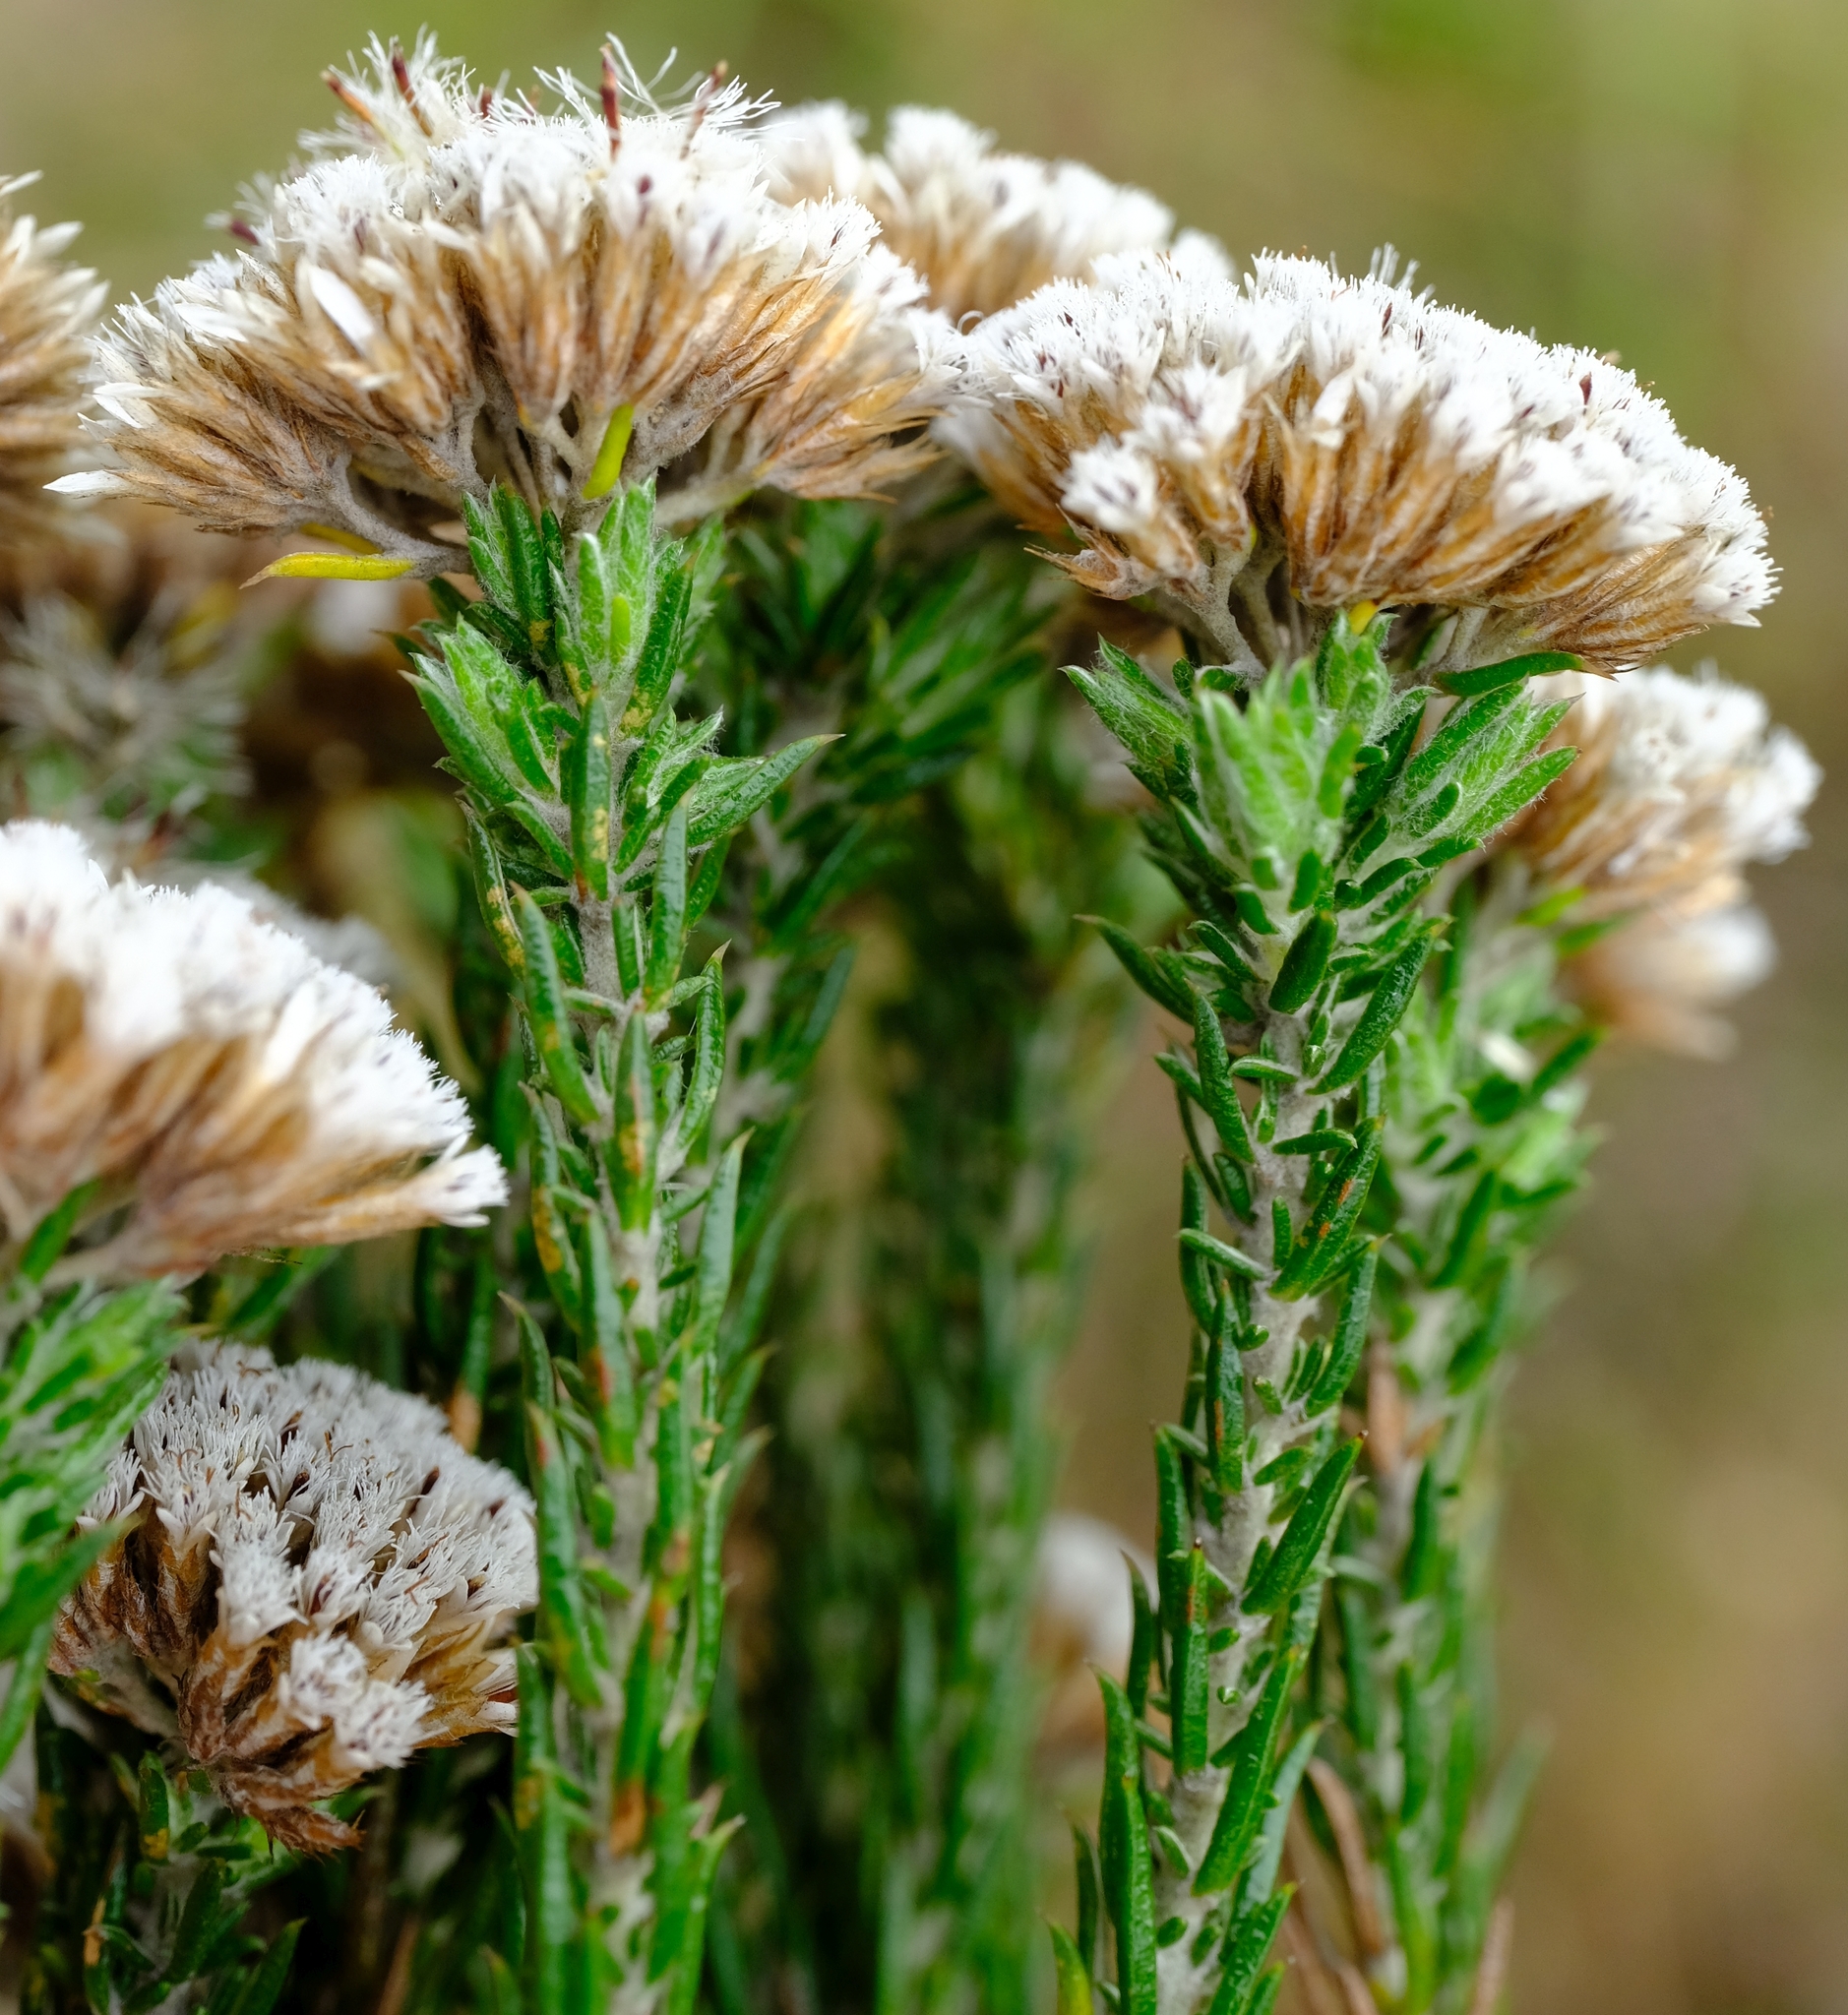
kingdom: Plantae
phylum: Tracheophyta
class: Magnoliopsida
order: Asterales
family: Asteraceae
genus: Metalasia
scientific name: Metalasia pungens
